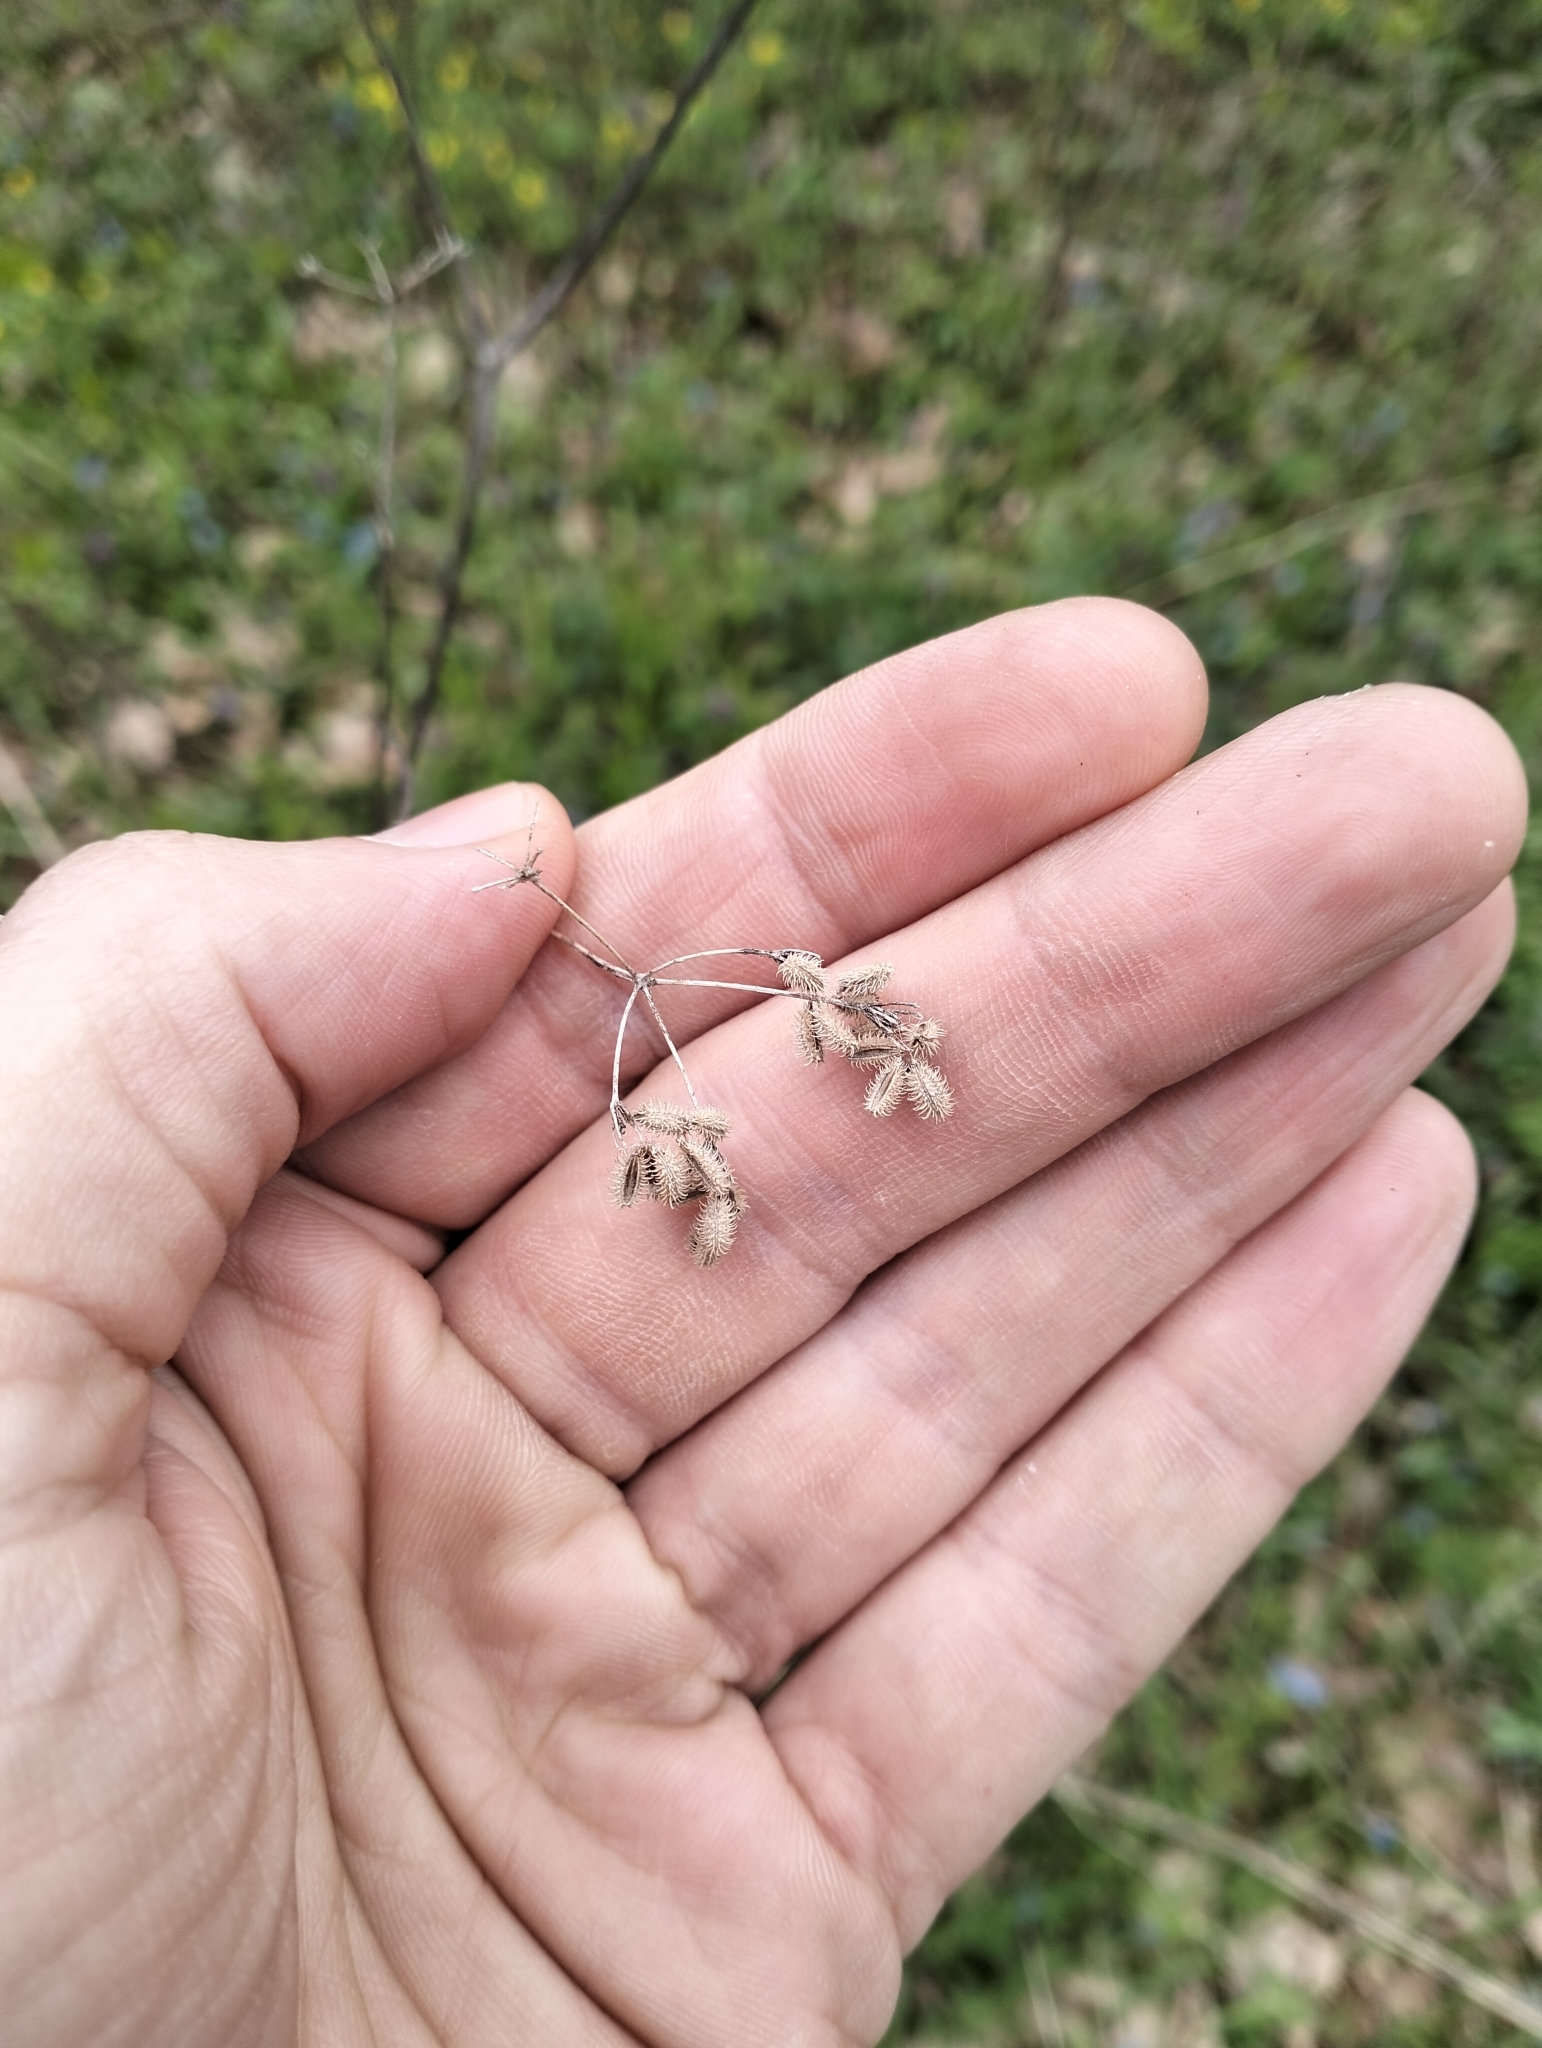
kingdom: Plantae
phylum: Tracheophyta
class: Magnoliopsida
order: Apiales
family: Apiaceae
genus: Torilis
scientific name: Torilis japonica
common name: Upright hedge-parsley
